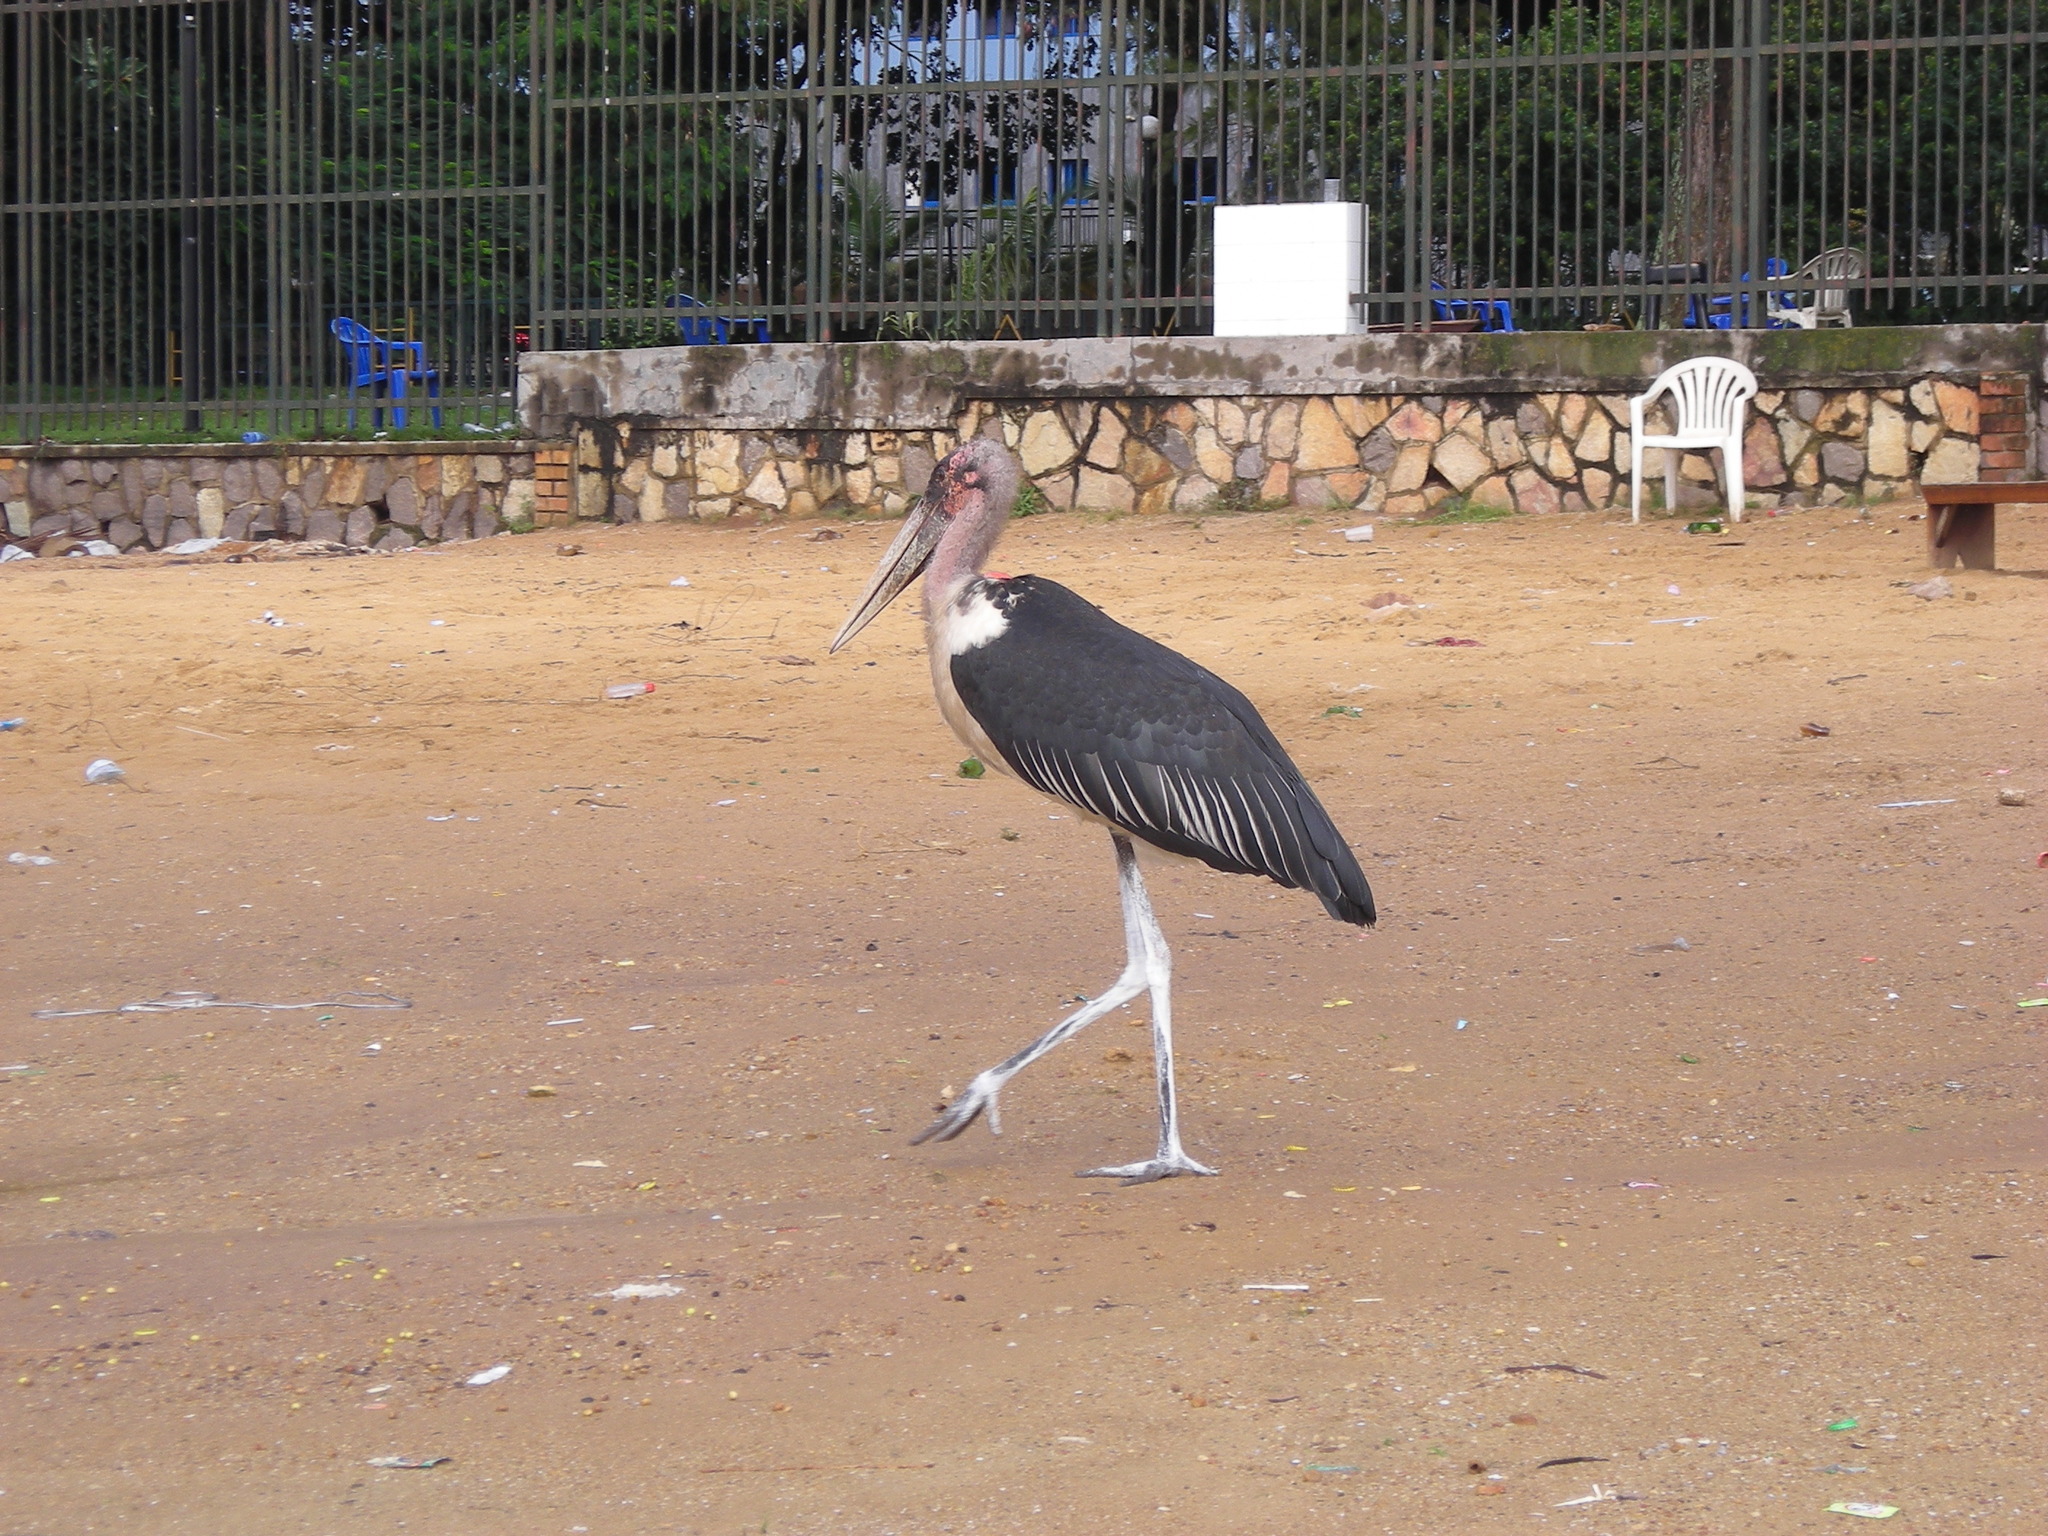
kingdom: Animalia
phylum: Chordata
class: Aves
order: Ciconiiformes
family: Ciconiidae
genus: Leptoptilos
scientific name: Leptoptilos crumenifer
